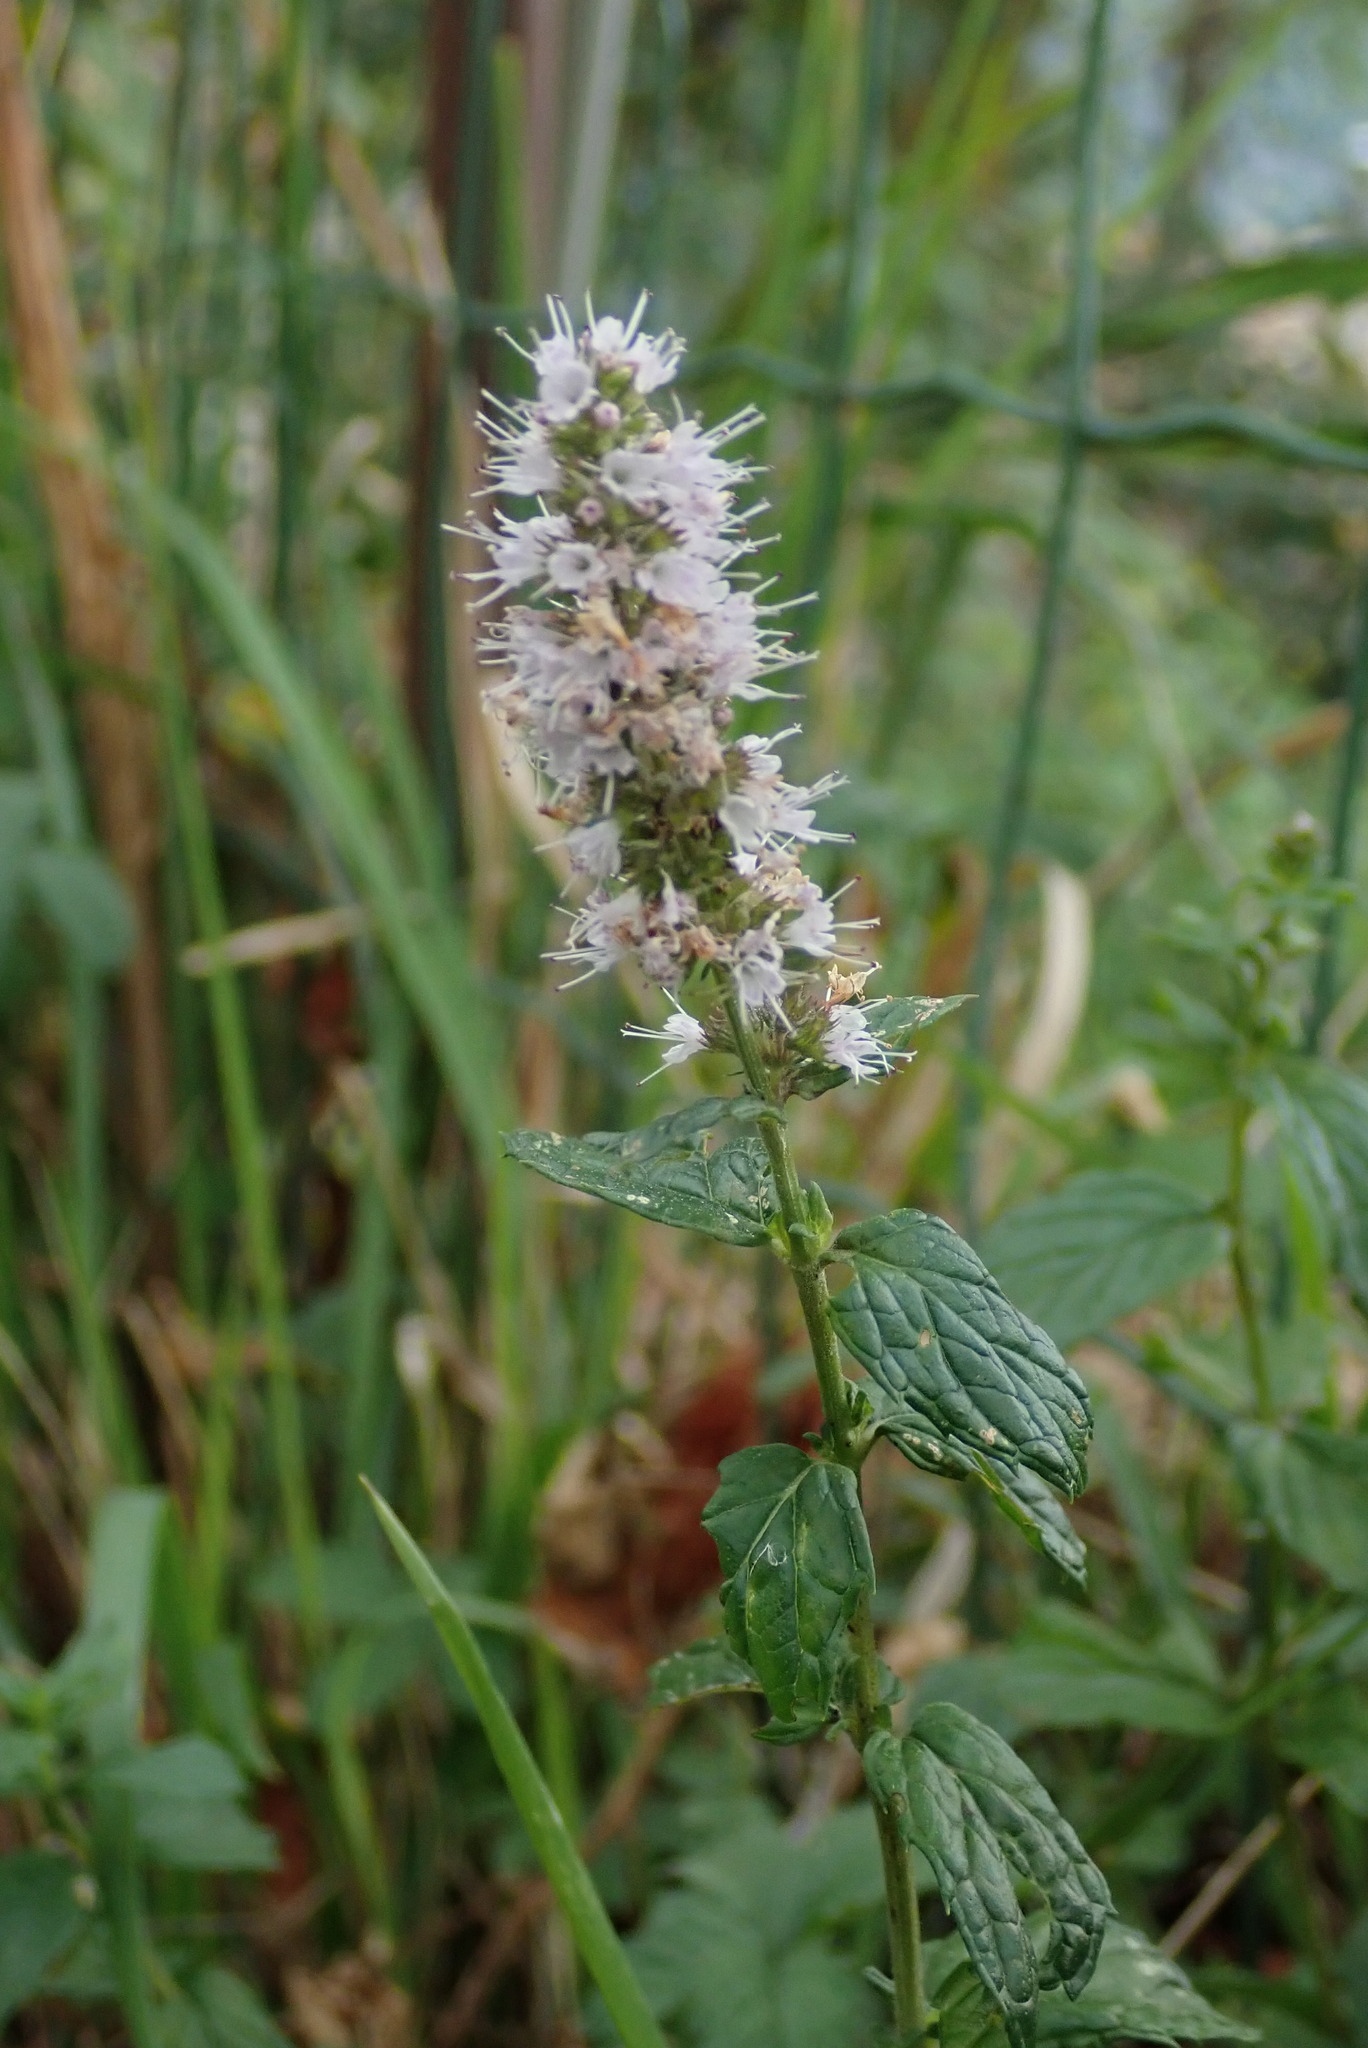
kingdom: Plantae
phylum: Tracheophyta
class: Magnoliopsida
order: Lamiales
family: Lamiaceae
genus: Mentha
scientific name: Mentha spicata
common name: Spearmint
